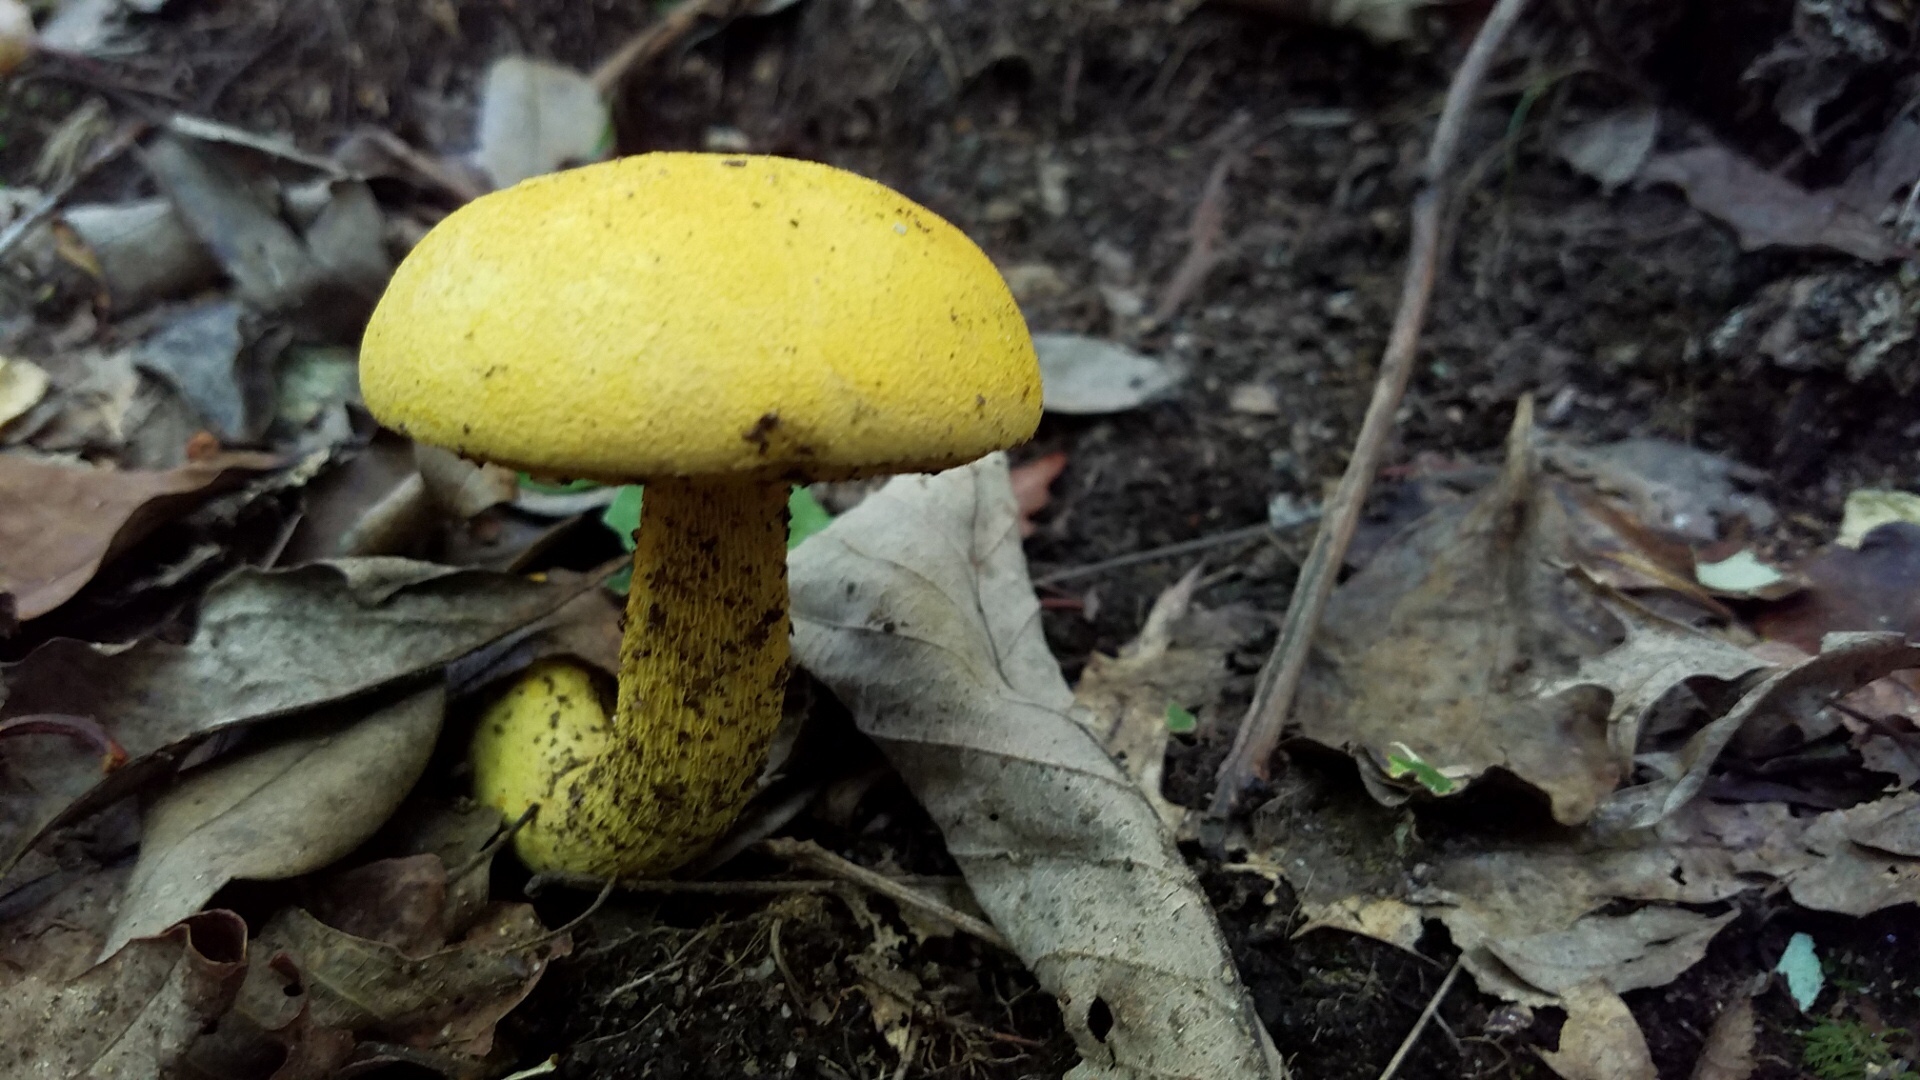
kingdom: Fungi
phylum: Basidiomycota
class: Agaricomycetes
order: Boletales
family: Boletaceae
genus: Retiboletus
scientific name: Retiboletus ornatipes
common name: Ornate-stalked bolete
